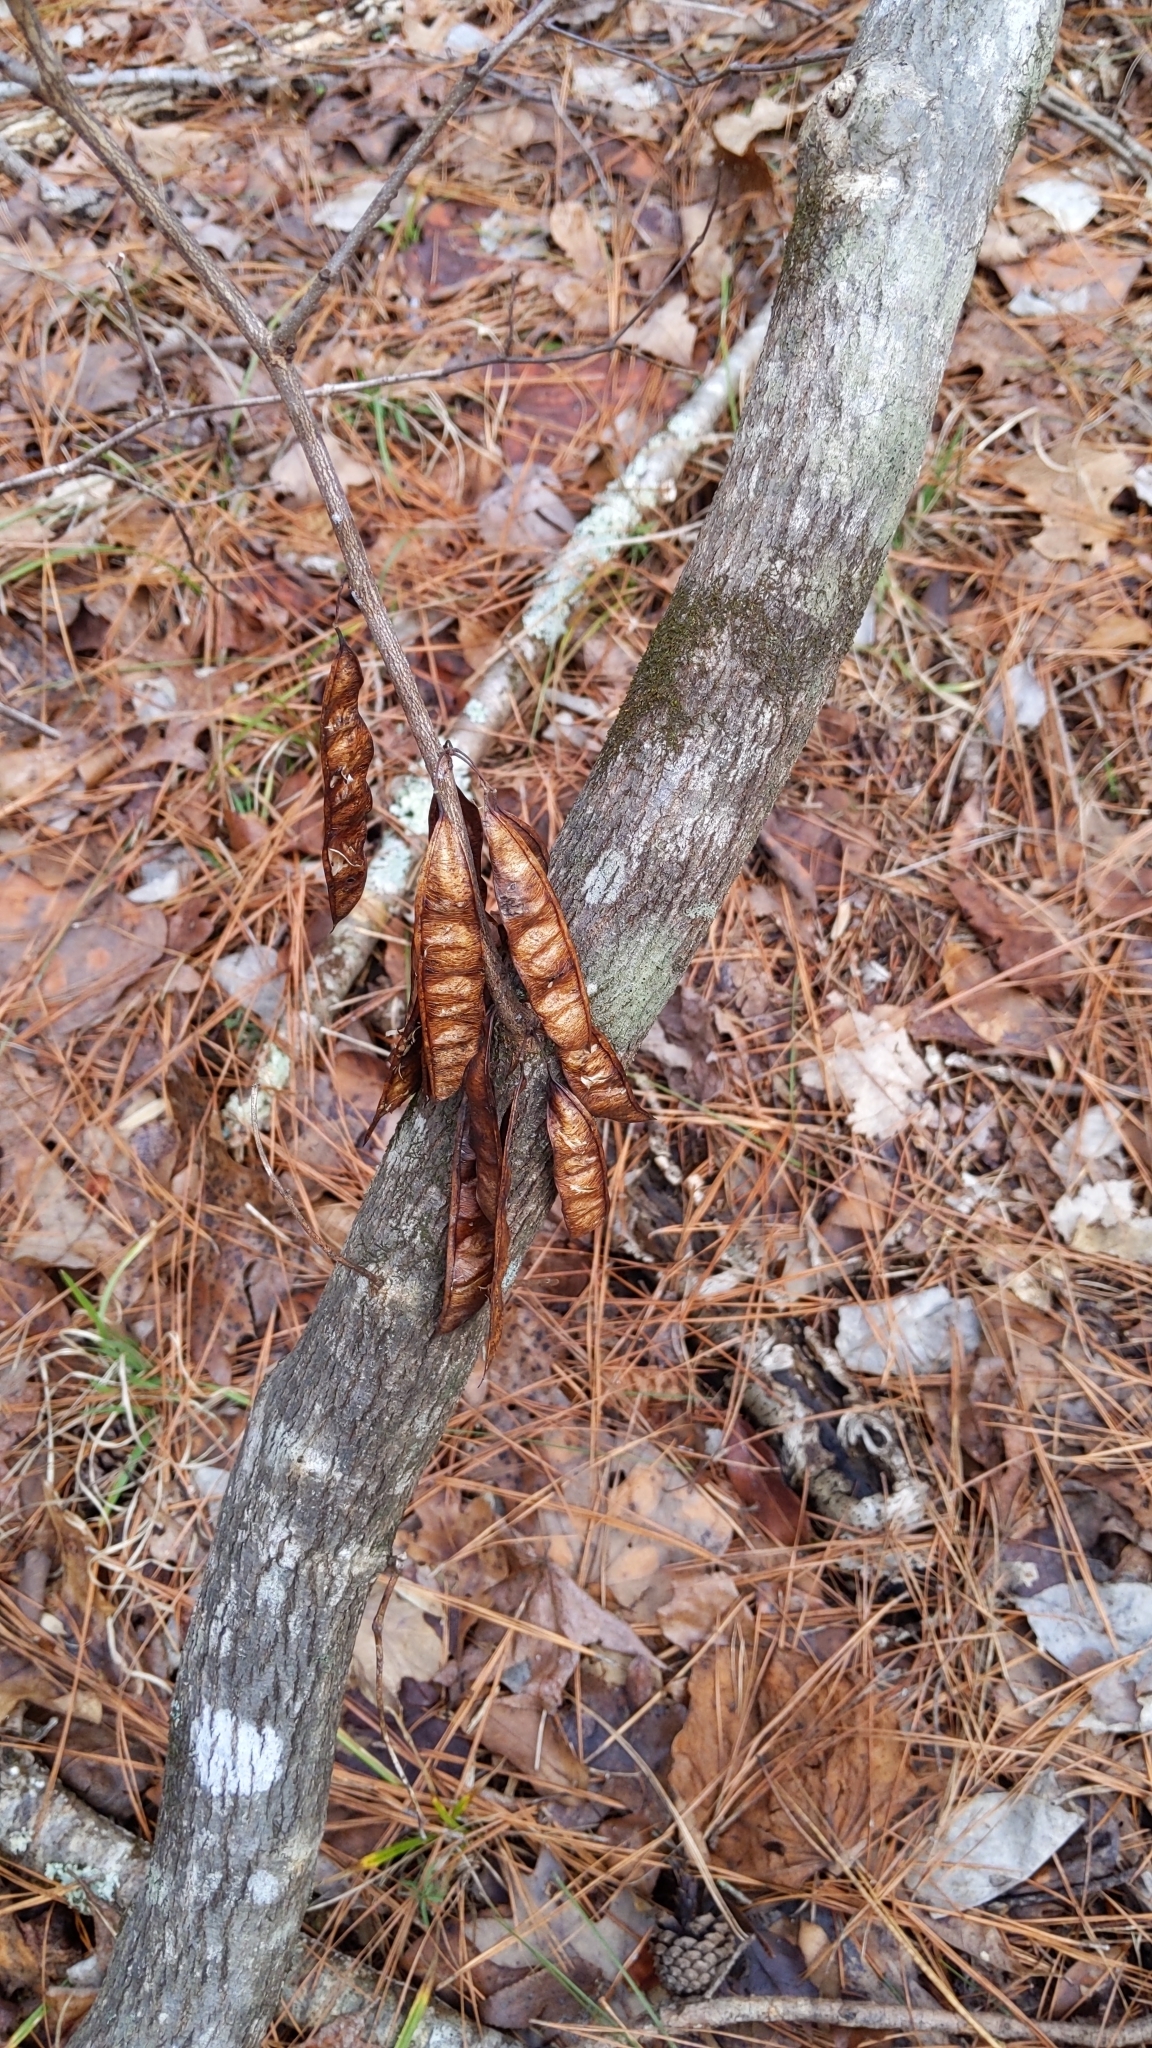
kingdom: Plantae
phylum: Tracheophyta
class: Magnoliopsida
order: Fabales
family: Fabaceae
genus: Cercis
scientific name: Cercis canadensis
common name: Eastern redbud
